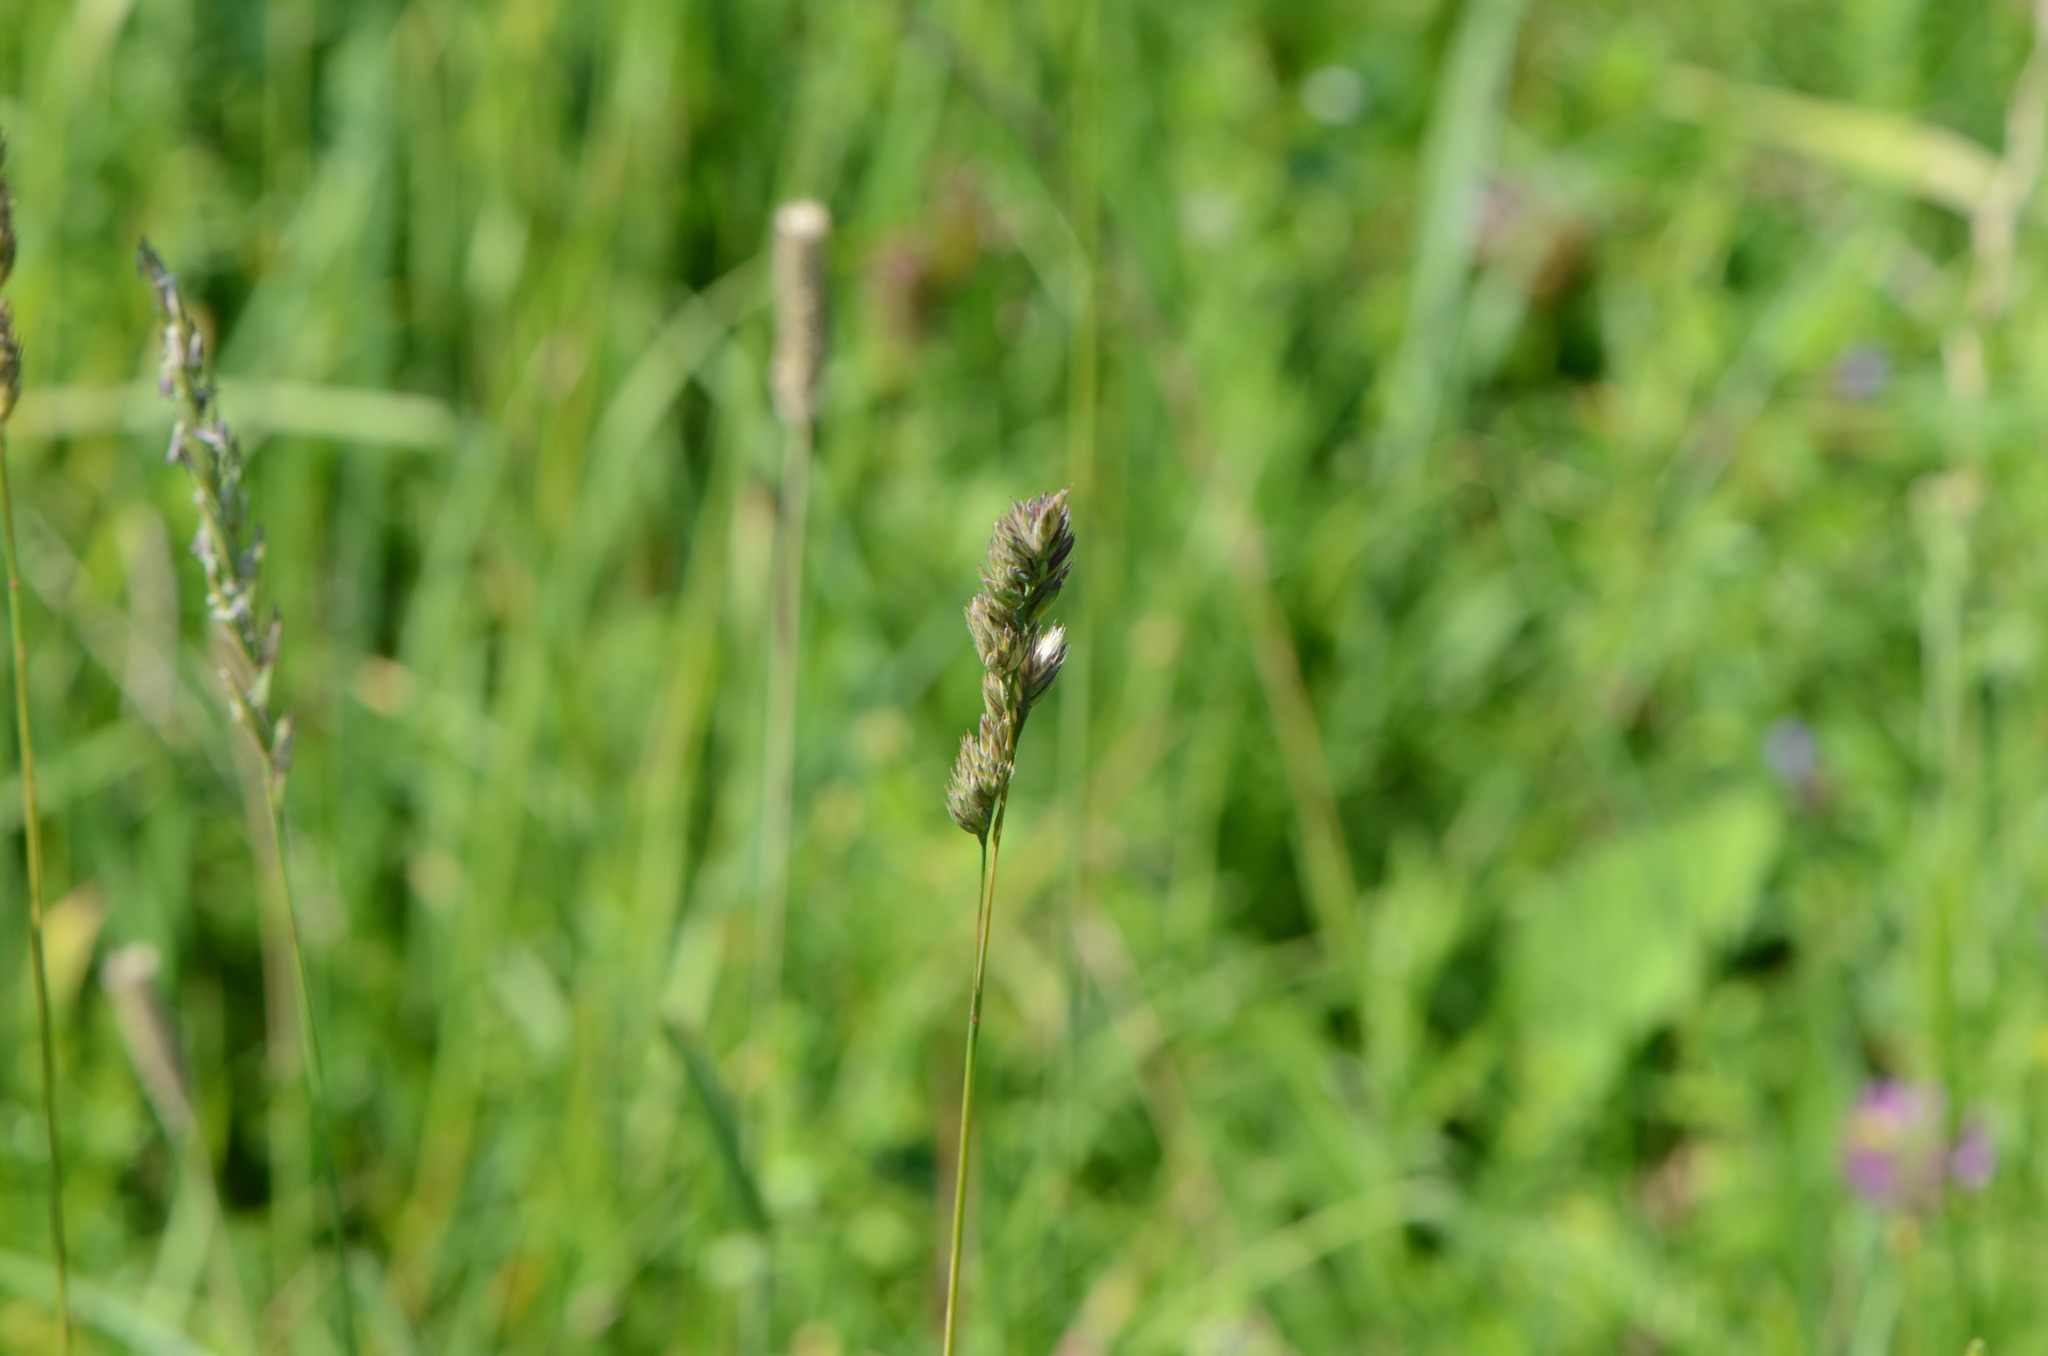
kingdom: Plantae
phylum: Tracheophyta
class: Liliopsida
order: Poales
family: Poaceae
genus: Dactylis
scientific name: Dactylis glomerata
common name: Orchardgrass
